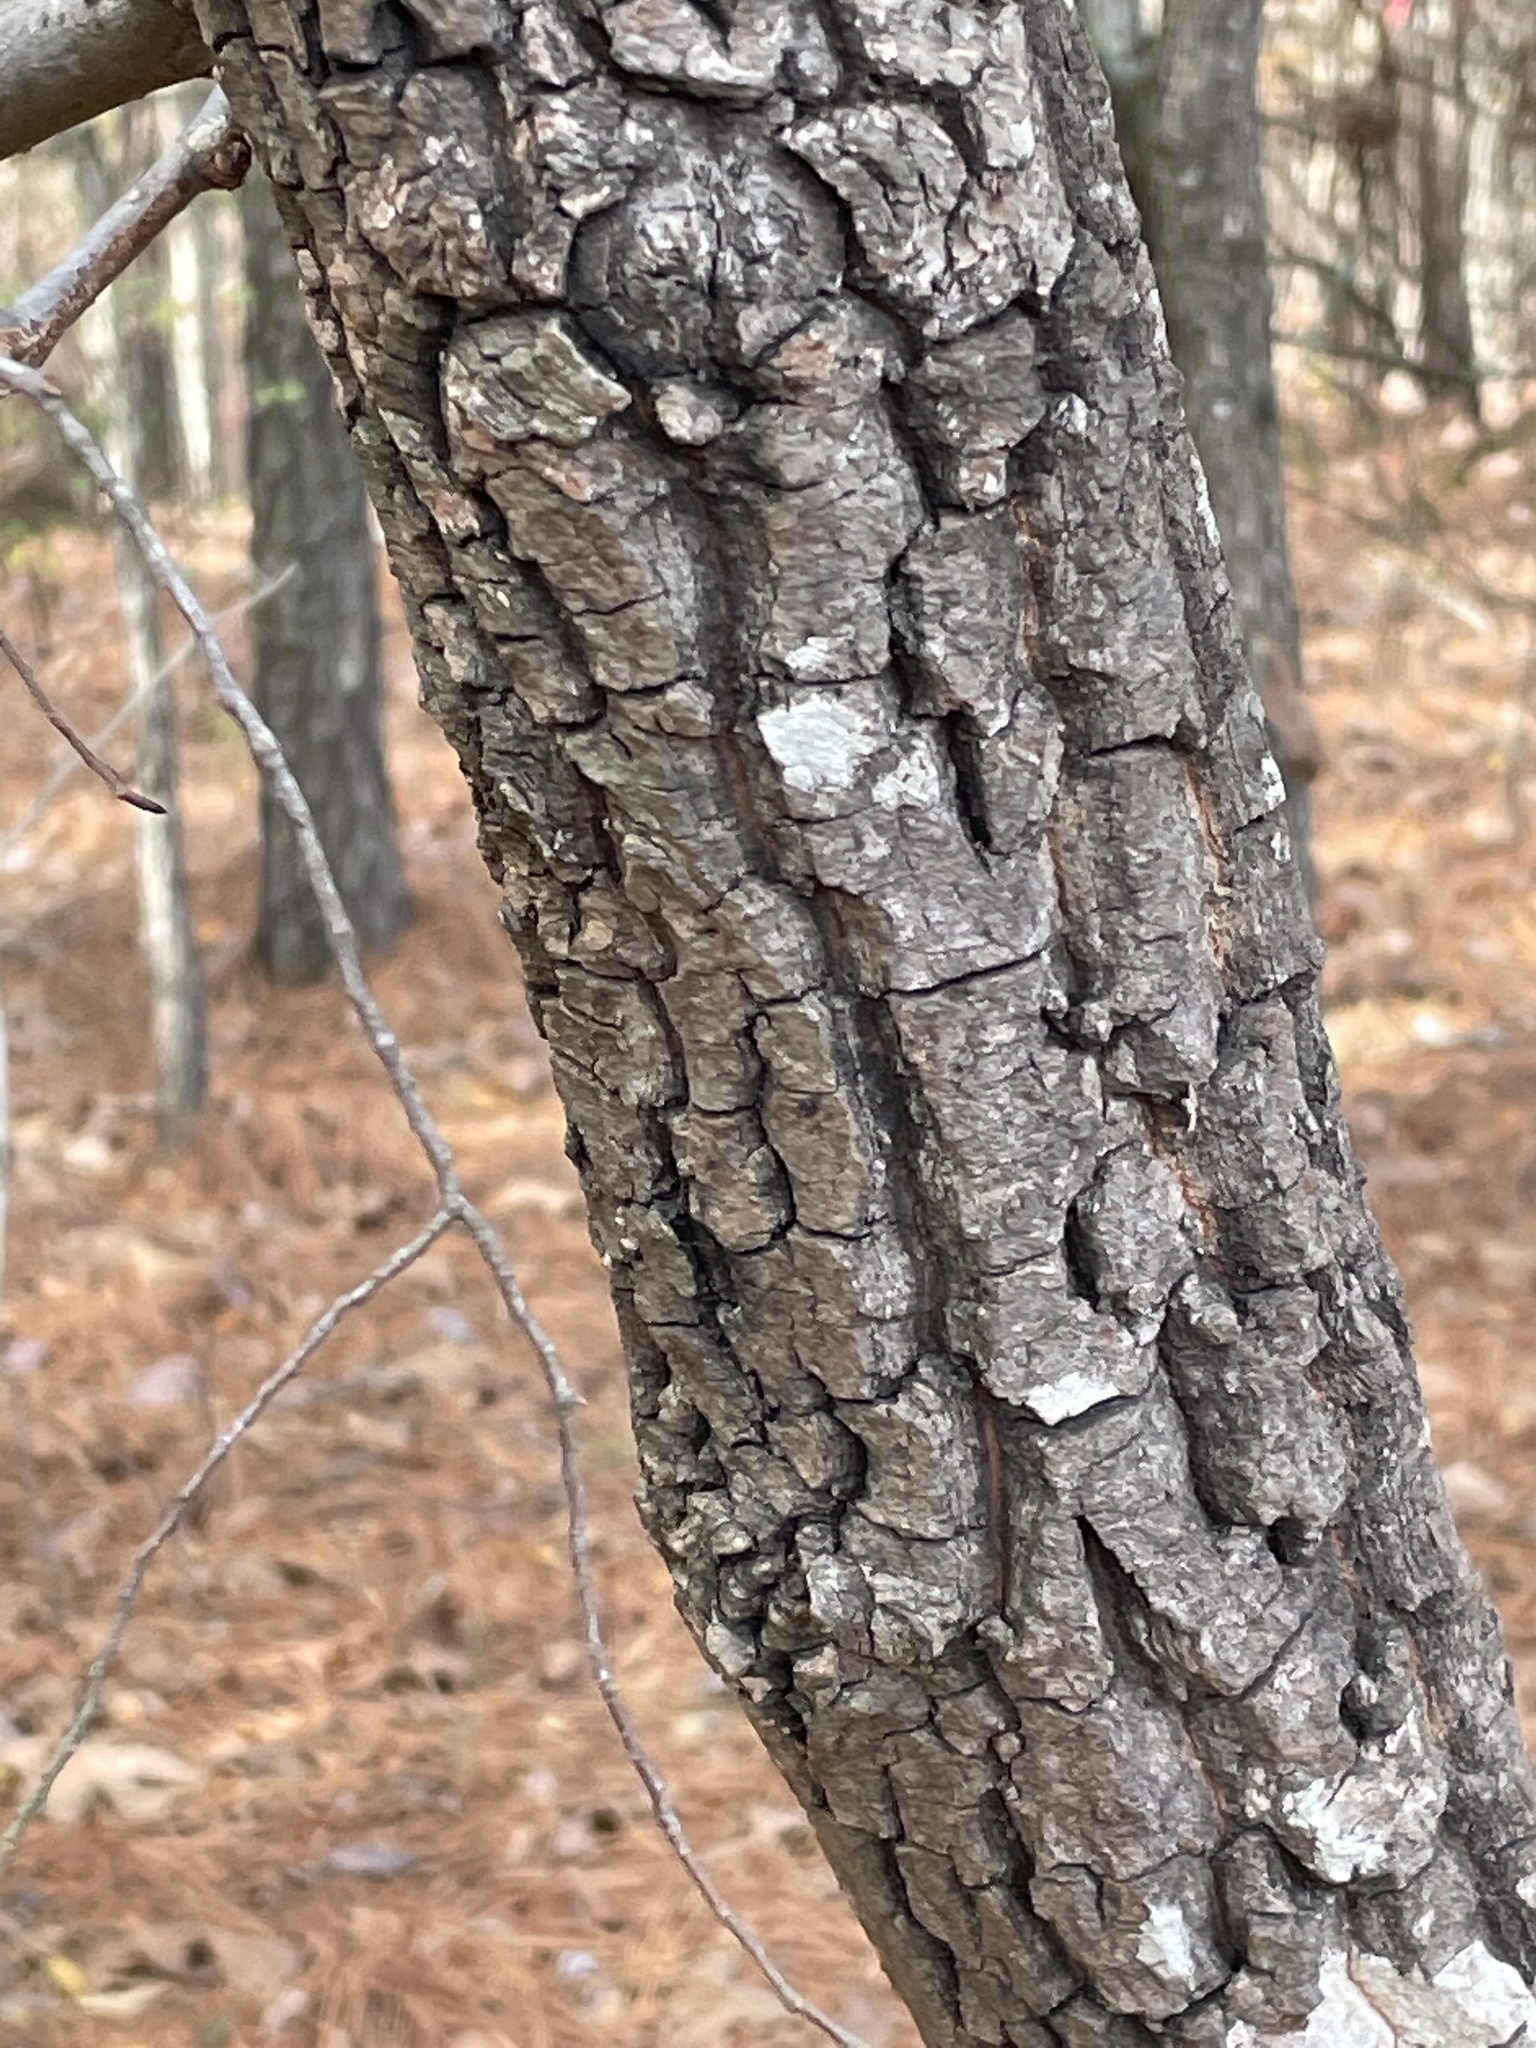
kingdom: Plantae
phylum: Tracheophyta
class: Magnoliopsida
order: Ericales
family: Ebenaceae
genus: Diospyros
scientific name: Diospyros virginiana
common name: Persimmon
